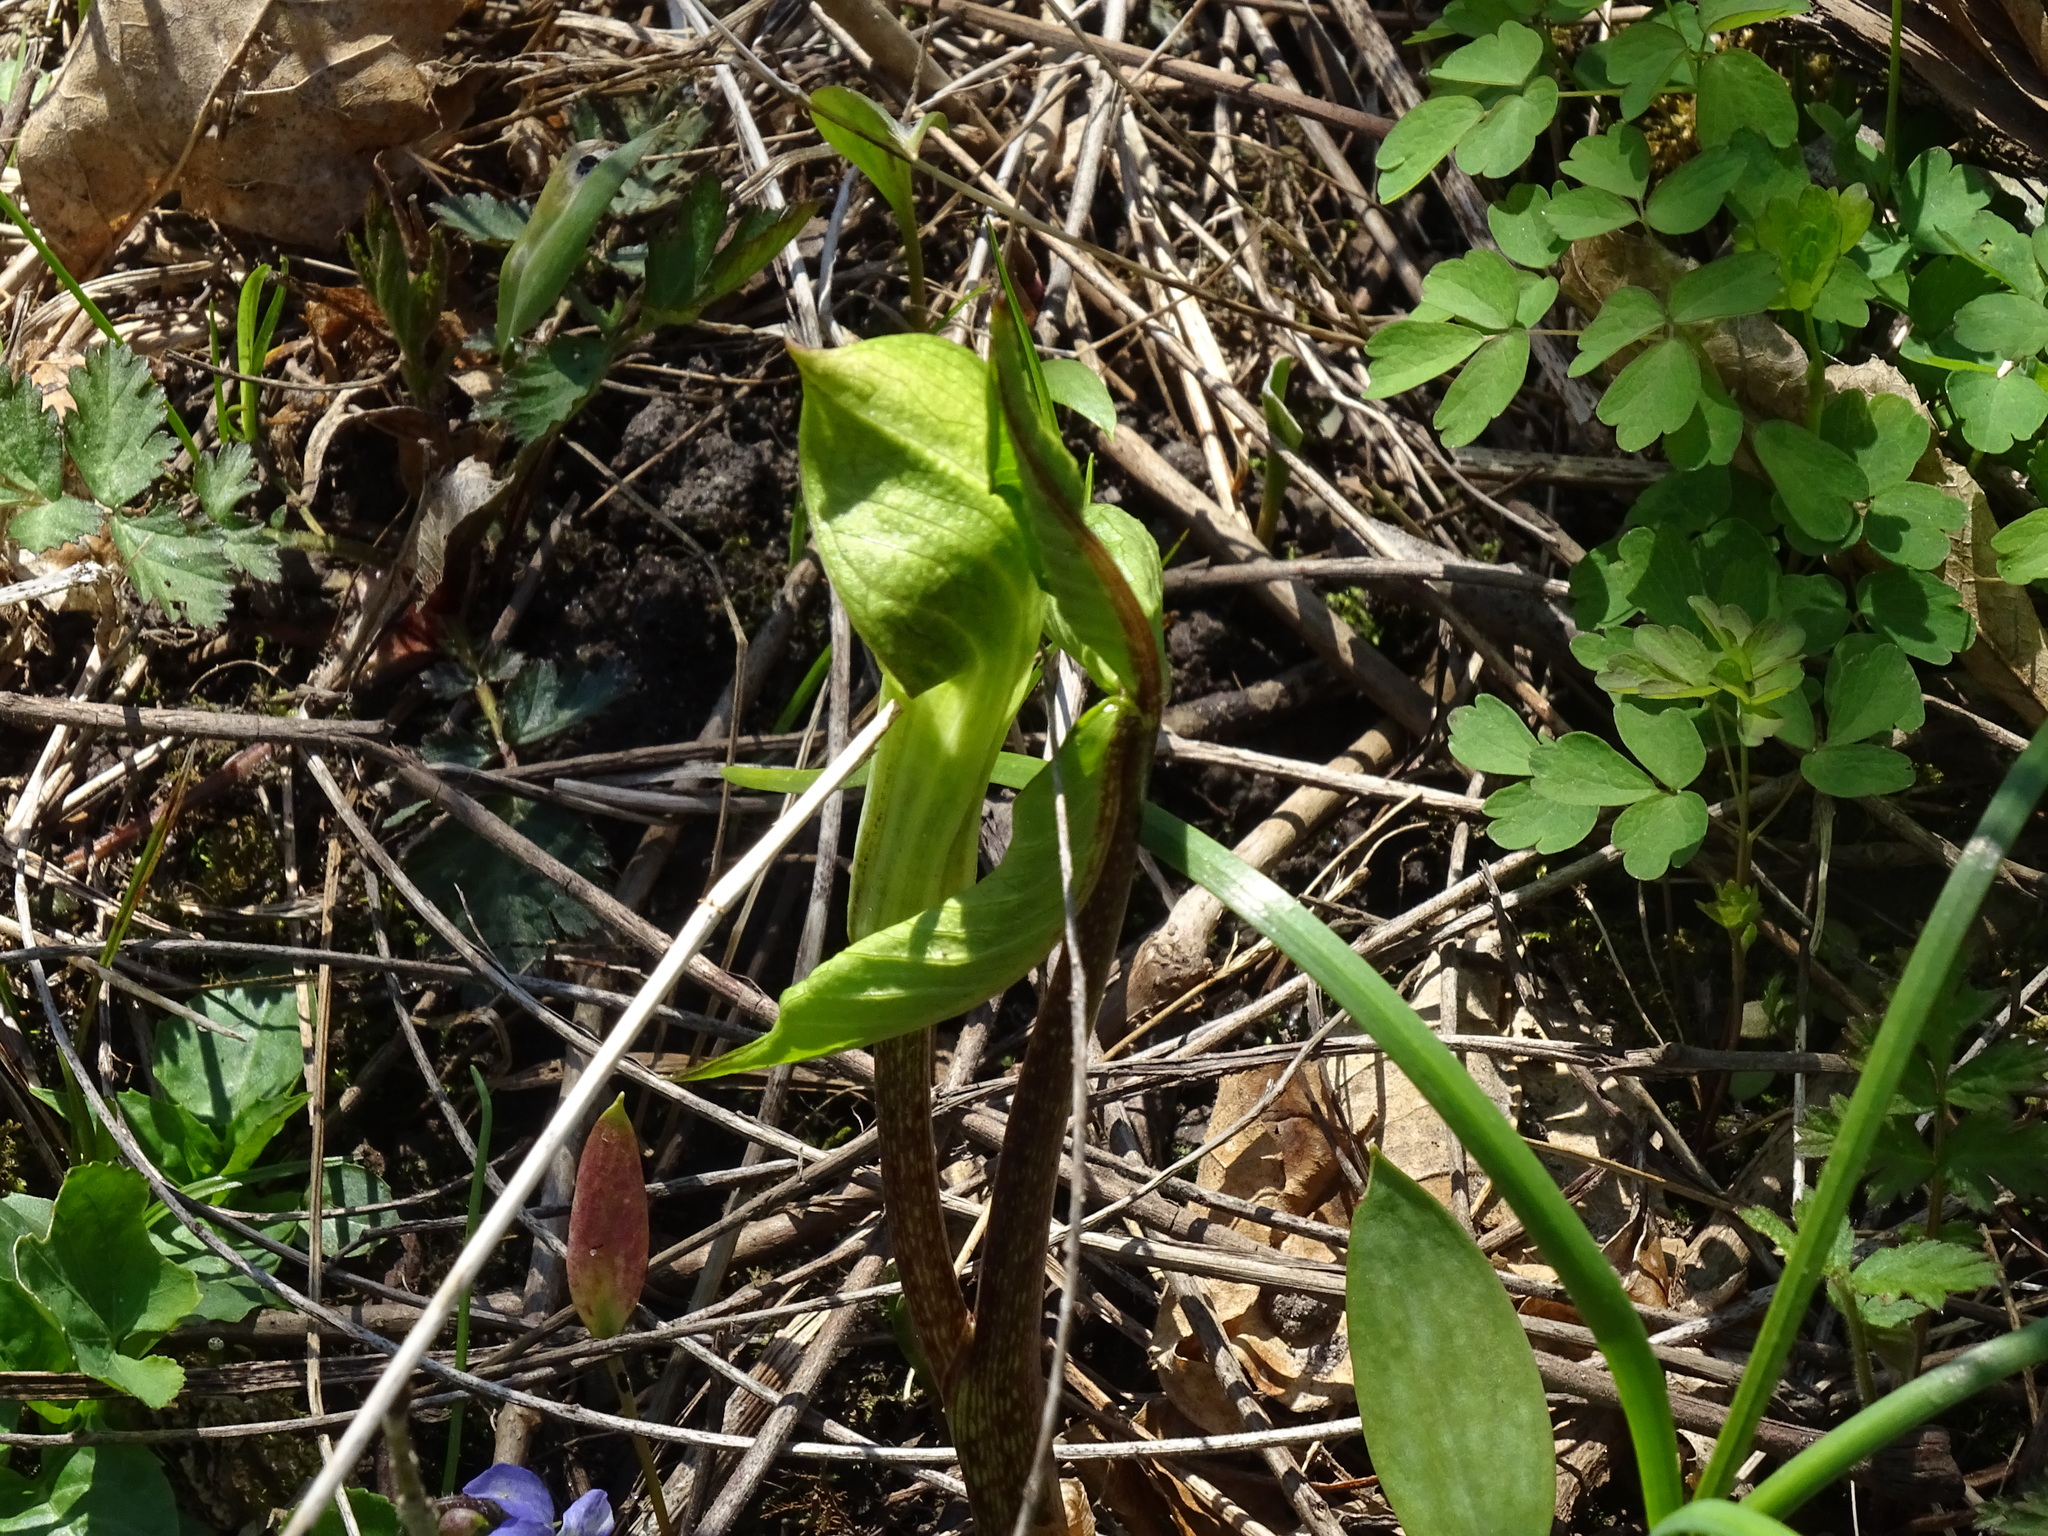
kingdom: Plantae
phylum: Tracheophyta
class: Liliopsida
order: Alismatales
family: Araceae
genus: Arisaema
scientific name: Arisaema triphyllum
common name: Jack-in-the-pulpit
